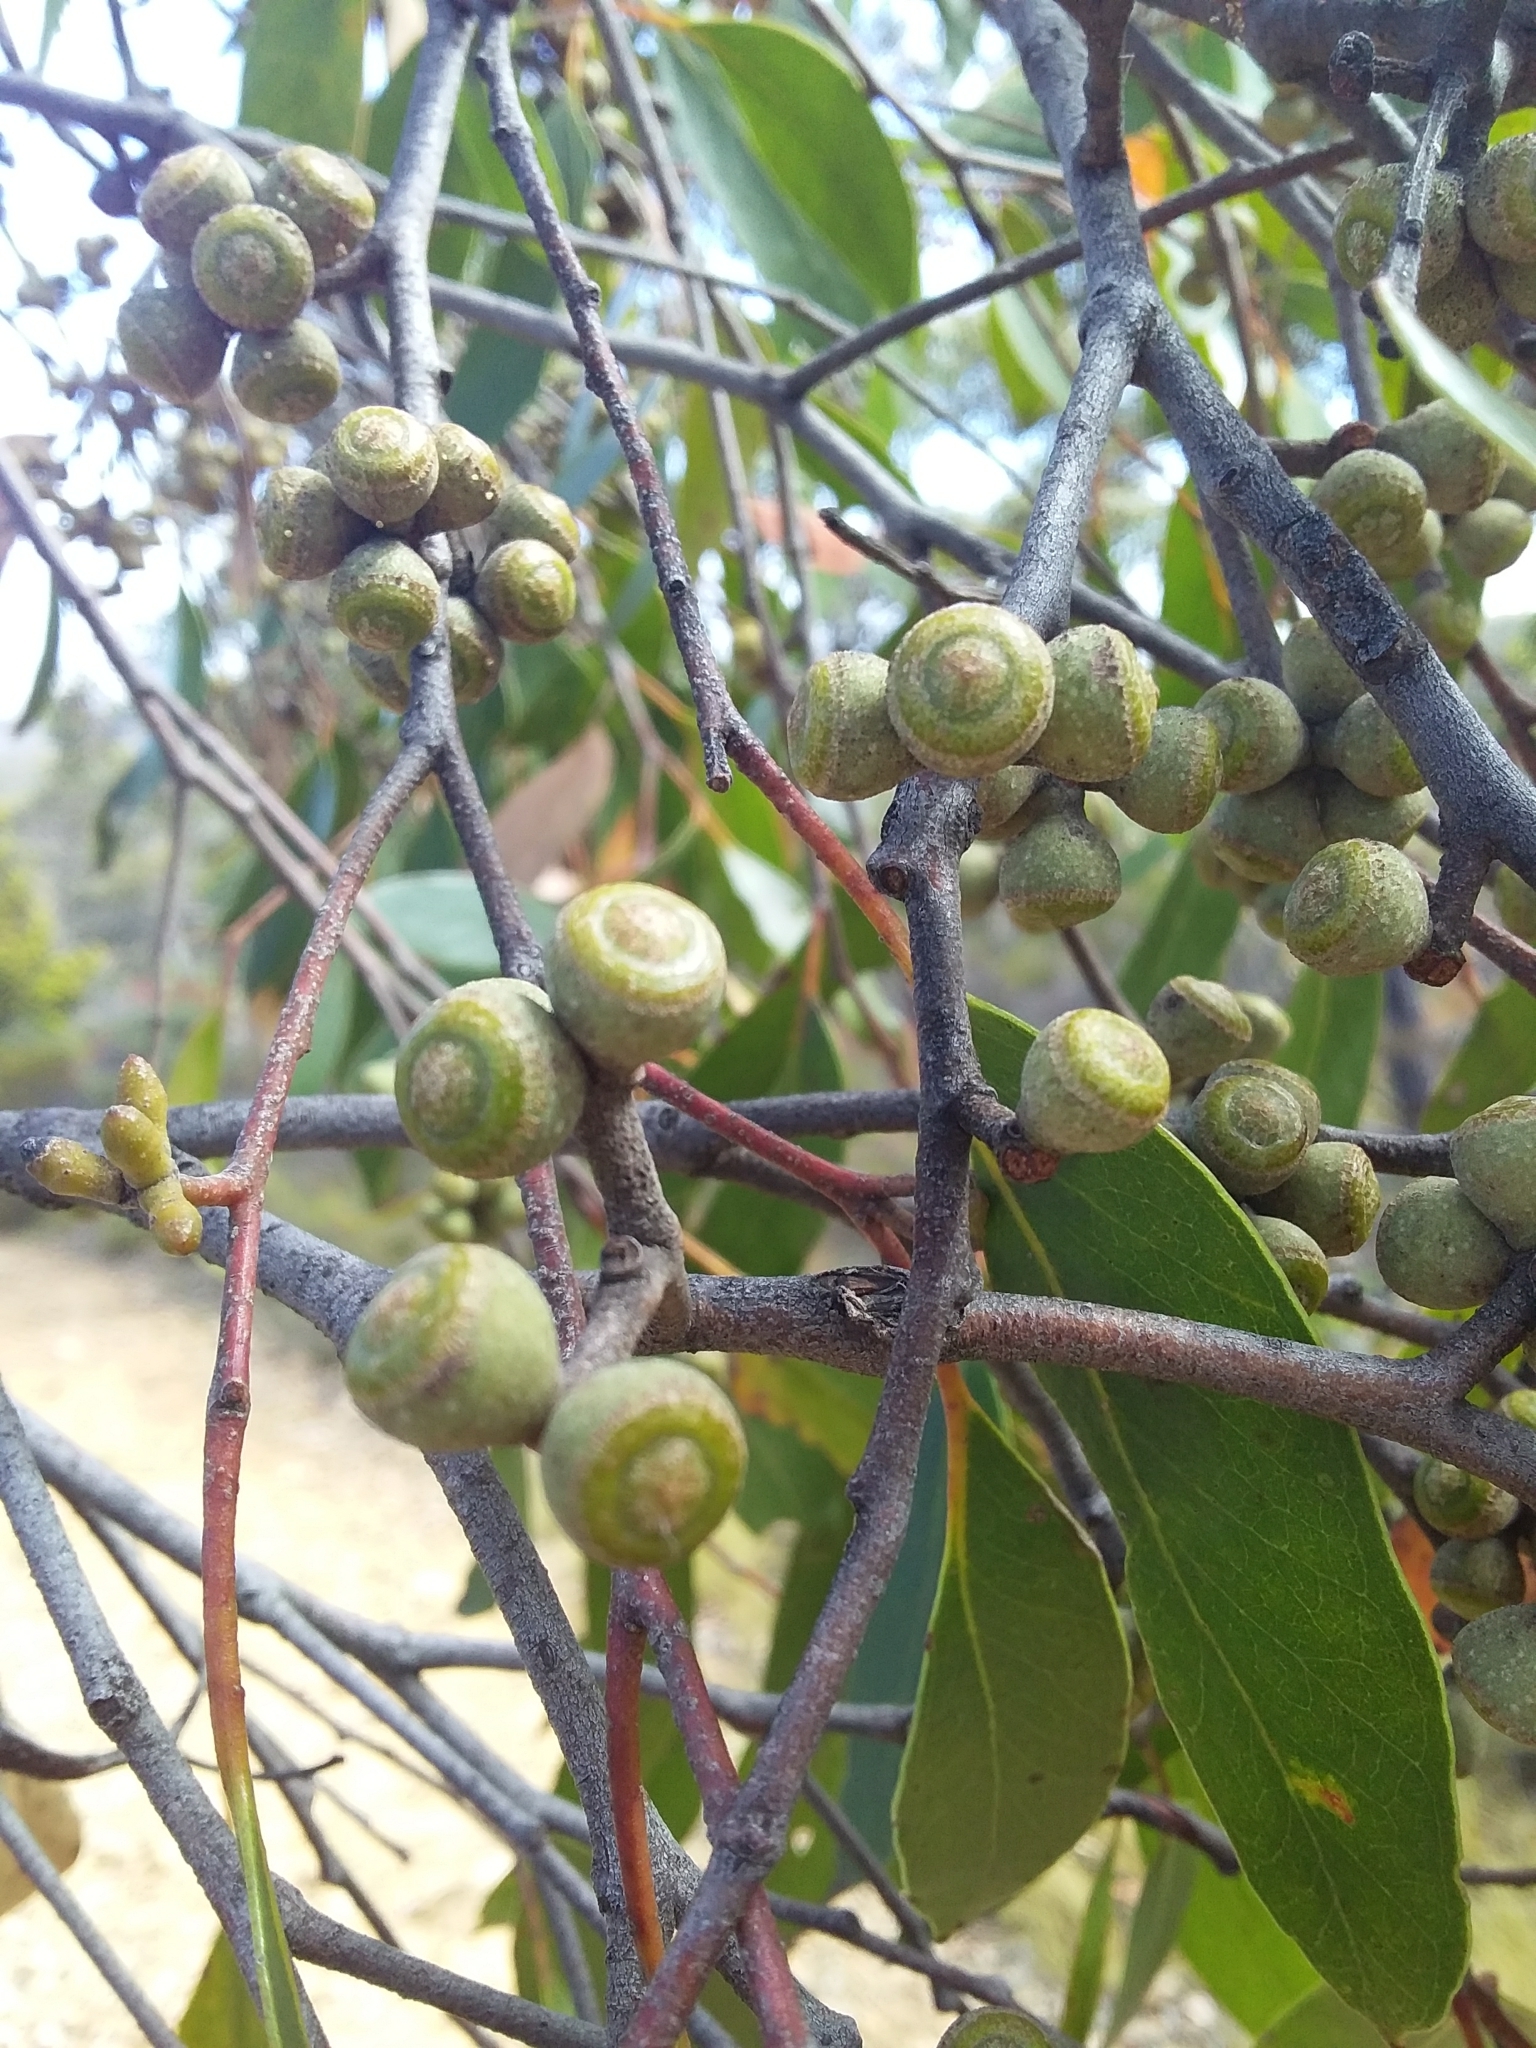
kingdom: Plantae
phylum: Tracheophyta
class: Magnoliopsida
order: Myrtales
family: Myrtaceae
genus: Eucalyptus
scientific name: Eucalyptus baxteri
